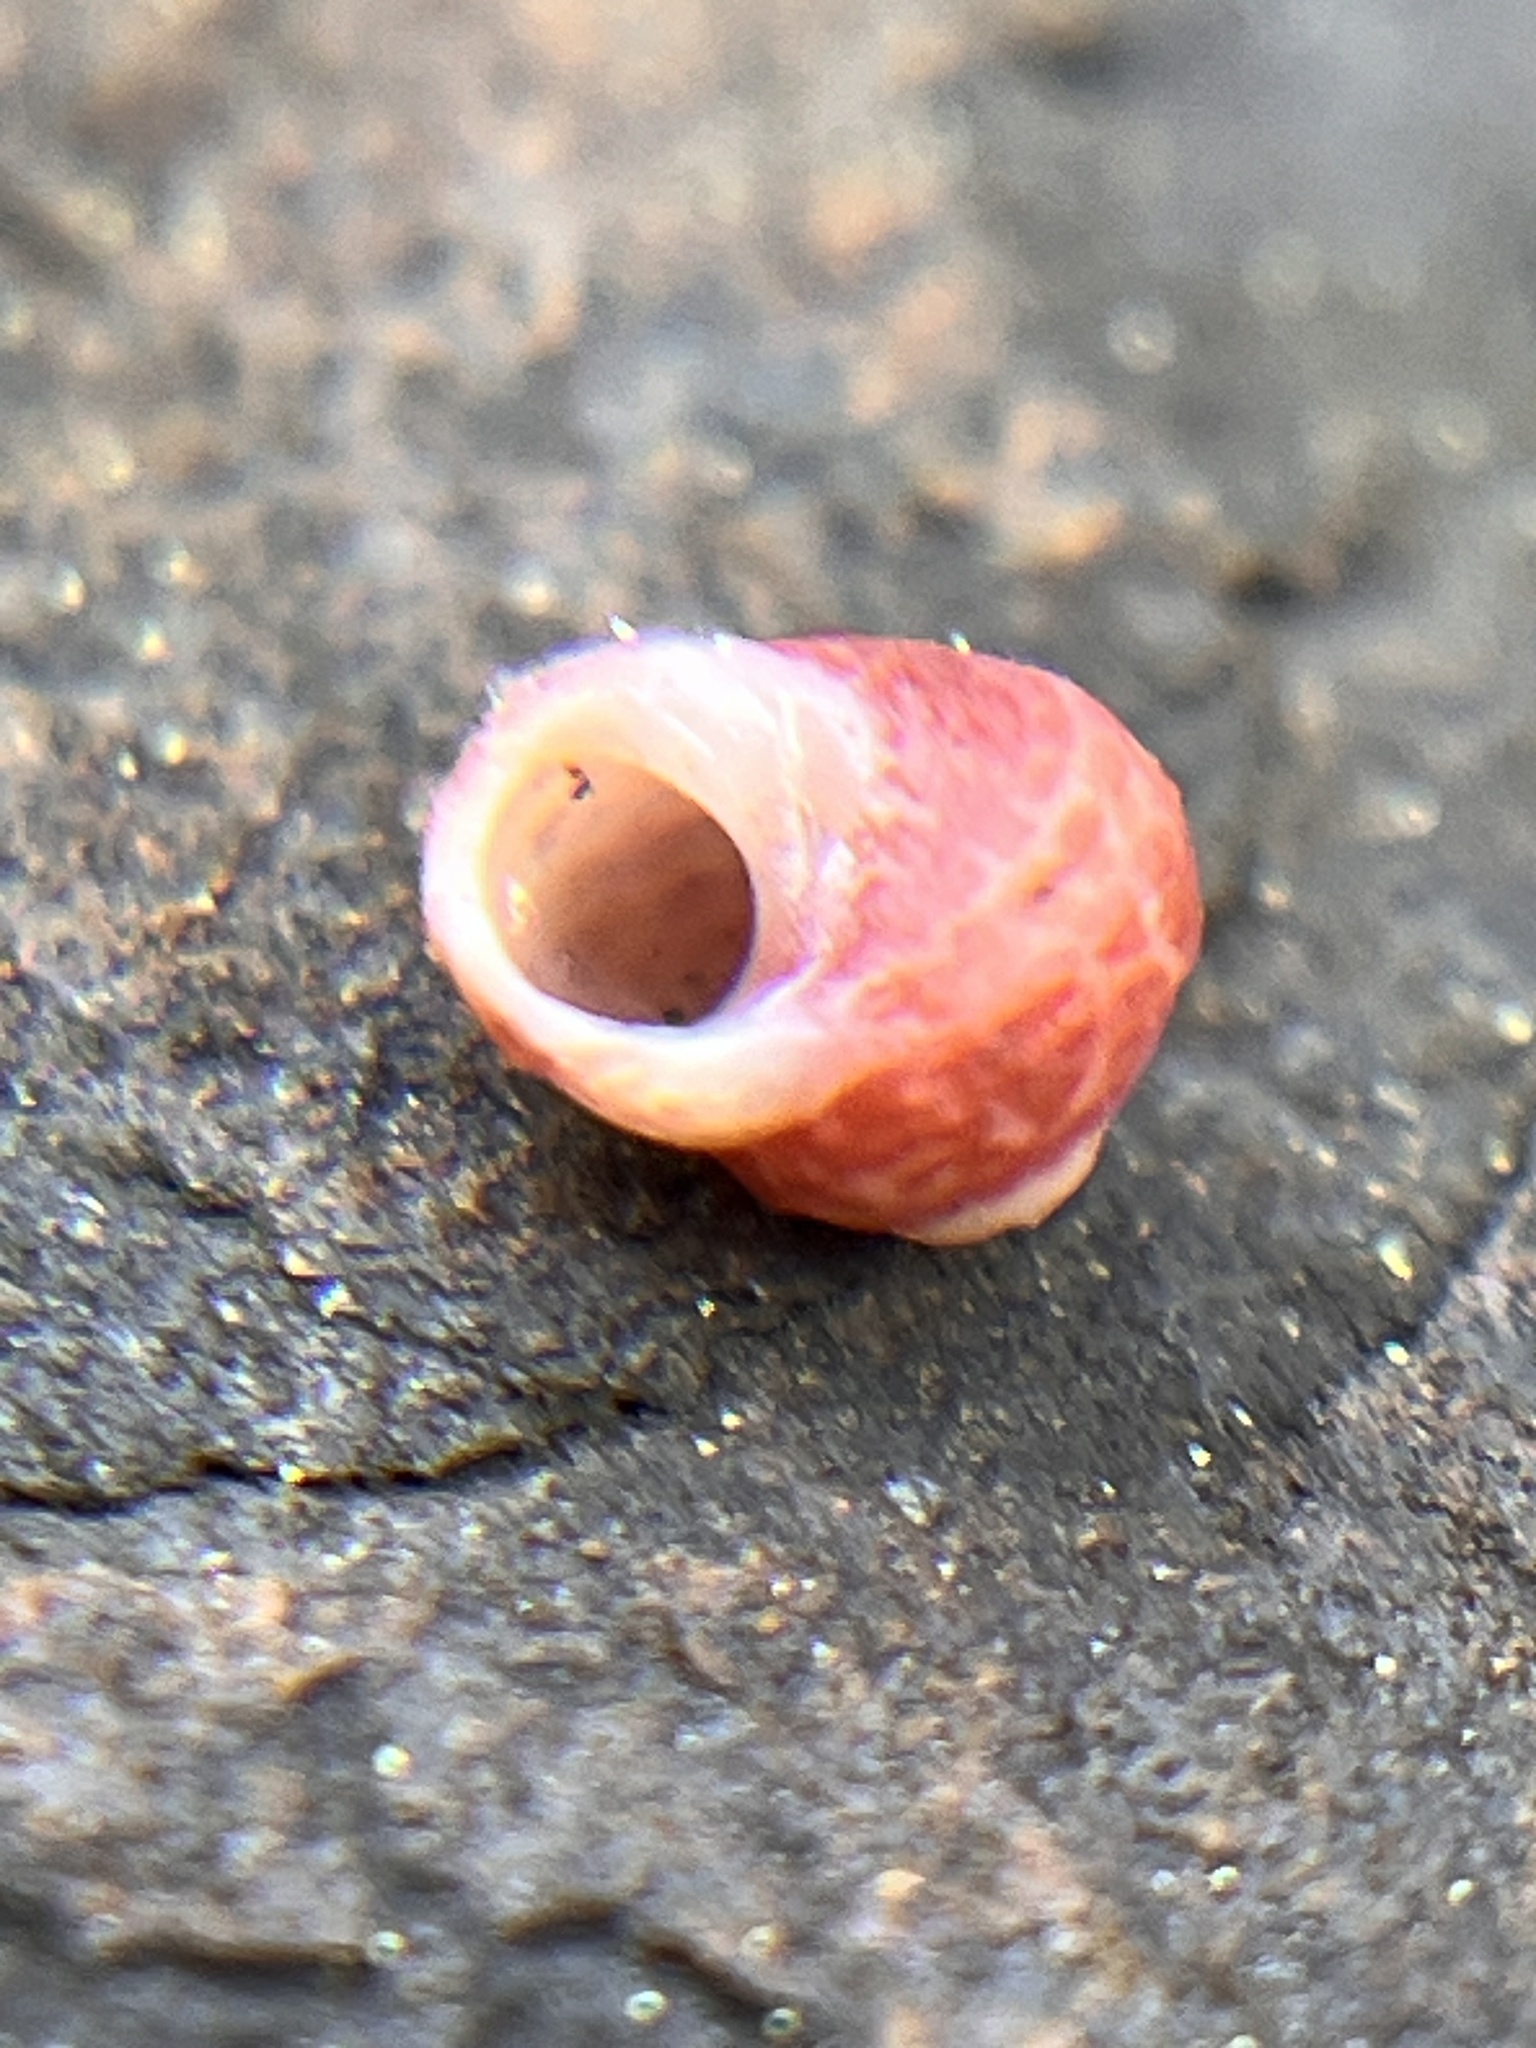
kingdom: Animalia
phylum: Mollusca
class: Gastropoda
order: Trochida
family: Colloniidae
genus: Homalopoma
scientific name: Homalopoma verruca
